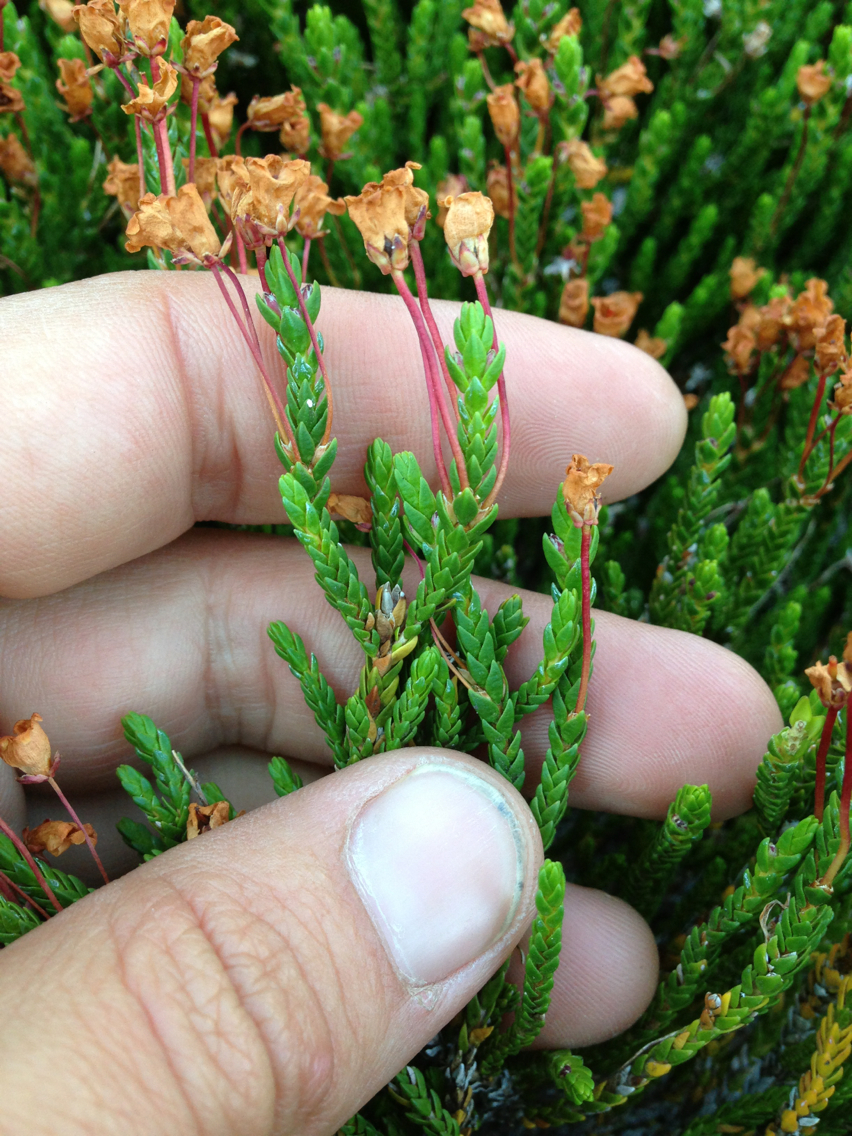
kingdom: Plantae
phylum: Tracheophyta
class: Magnoliopsida
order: Ericales
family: Ericaceae
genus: Cassiope
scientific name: Cassiope mertensiana
